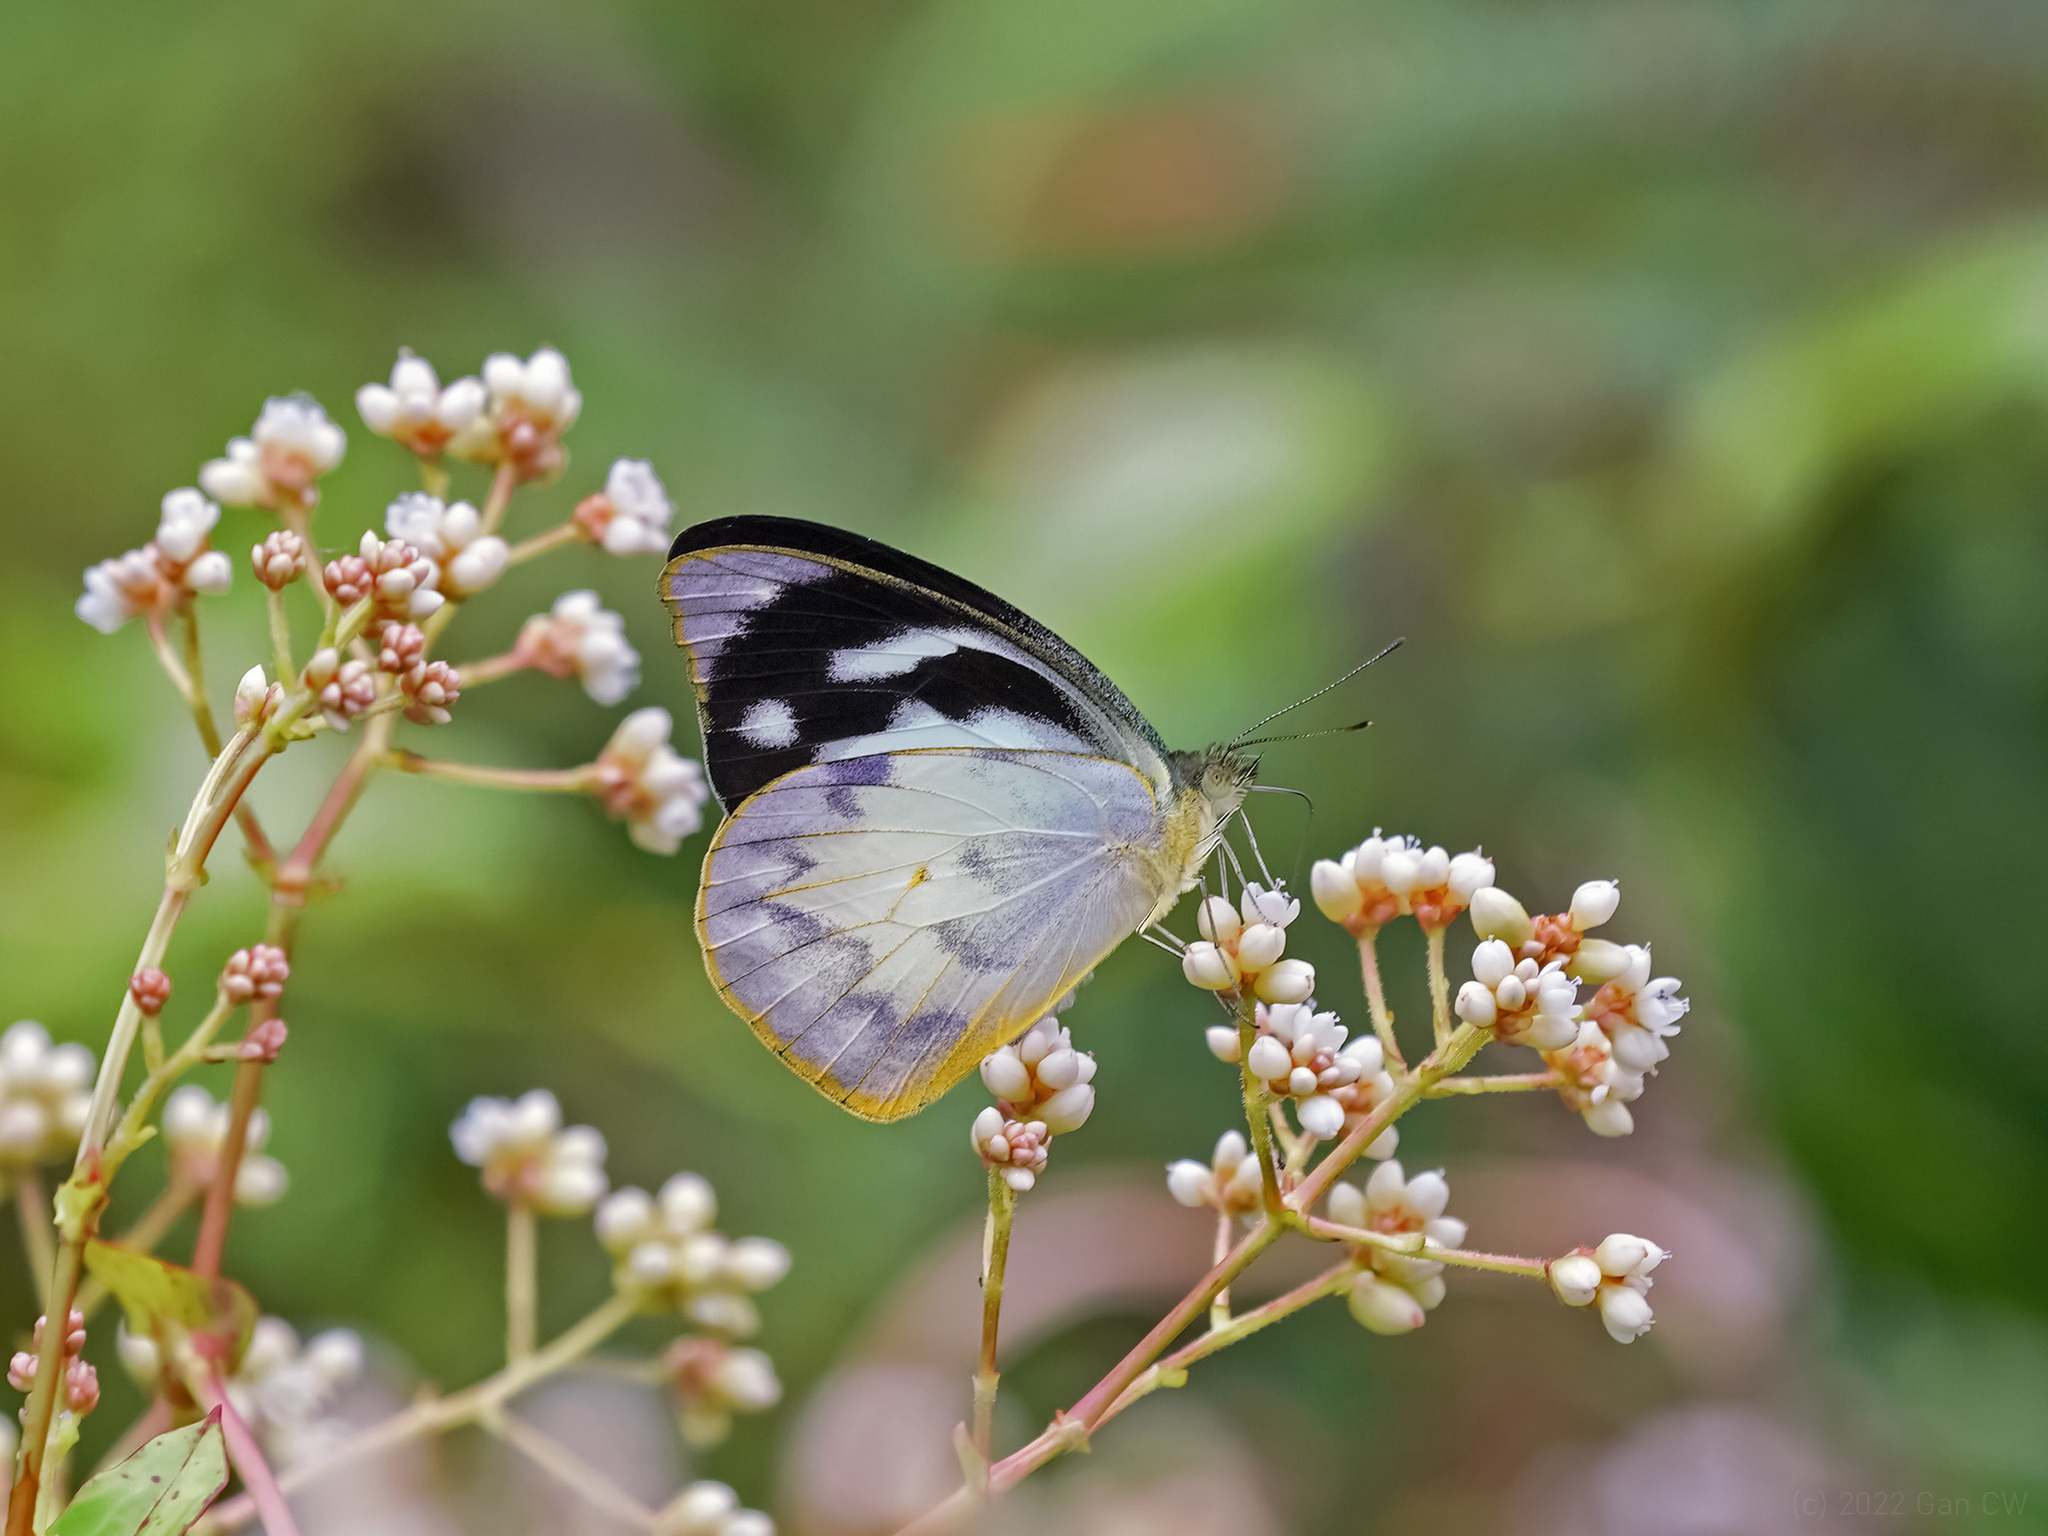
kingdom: Animalia
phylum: Arthropoda
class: Insecta
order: Lepidoptera
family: Pieridae
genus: Appias
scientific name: Appias pandione
